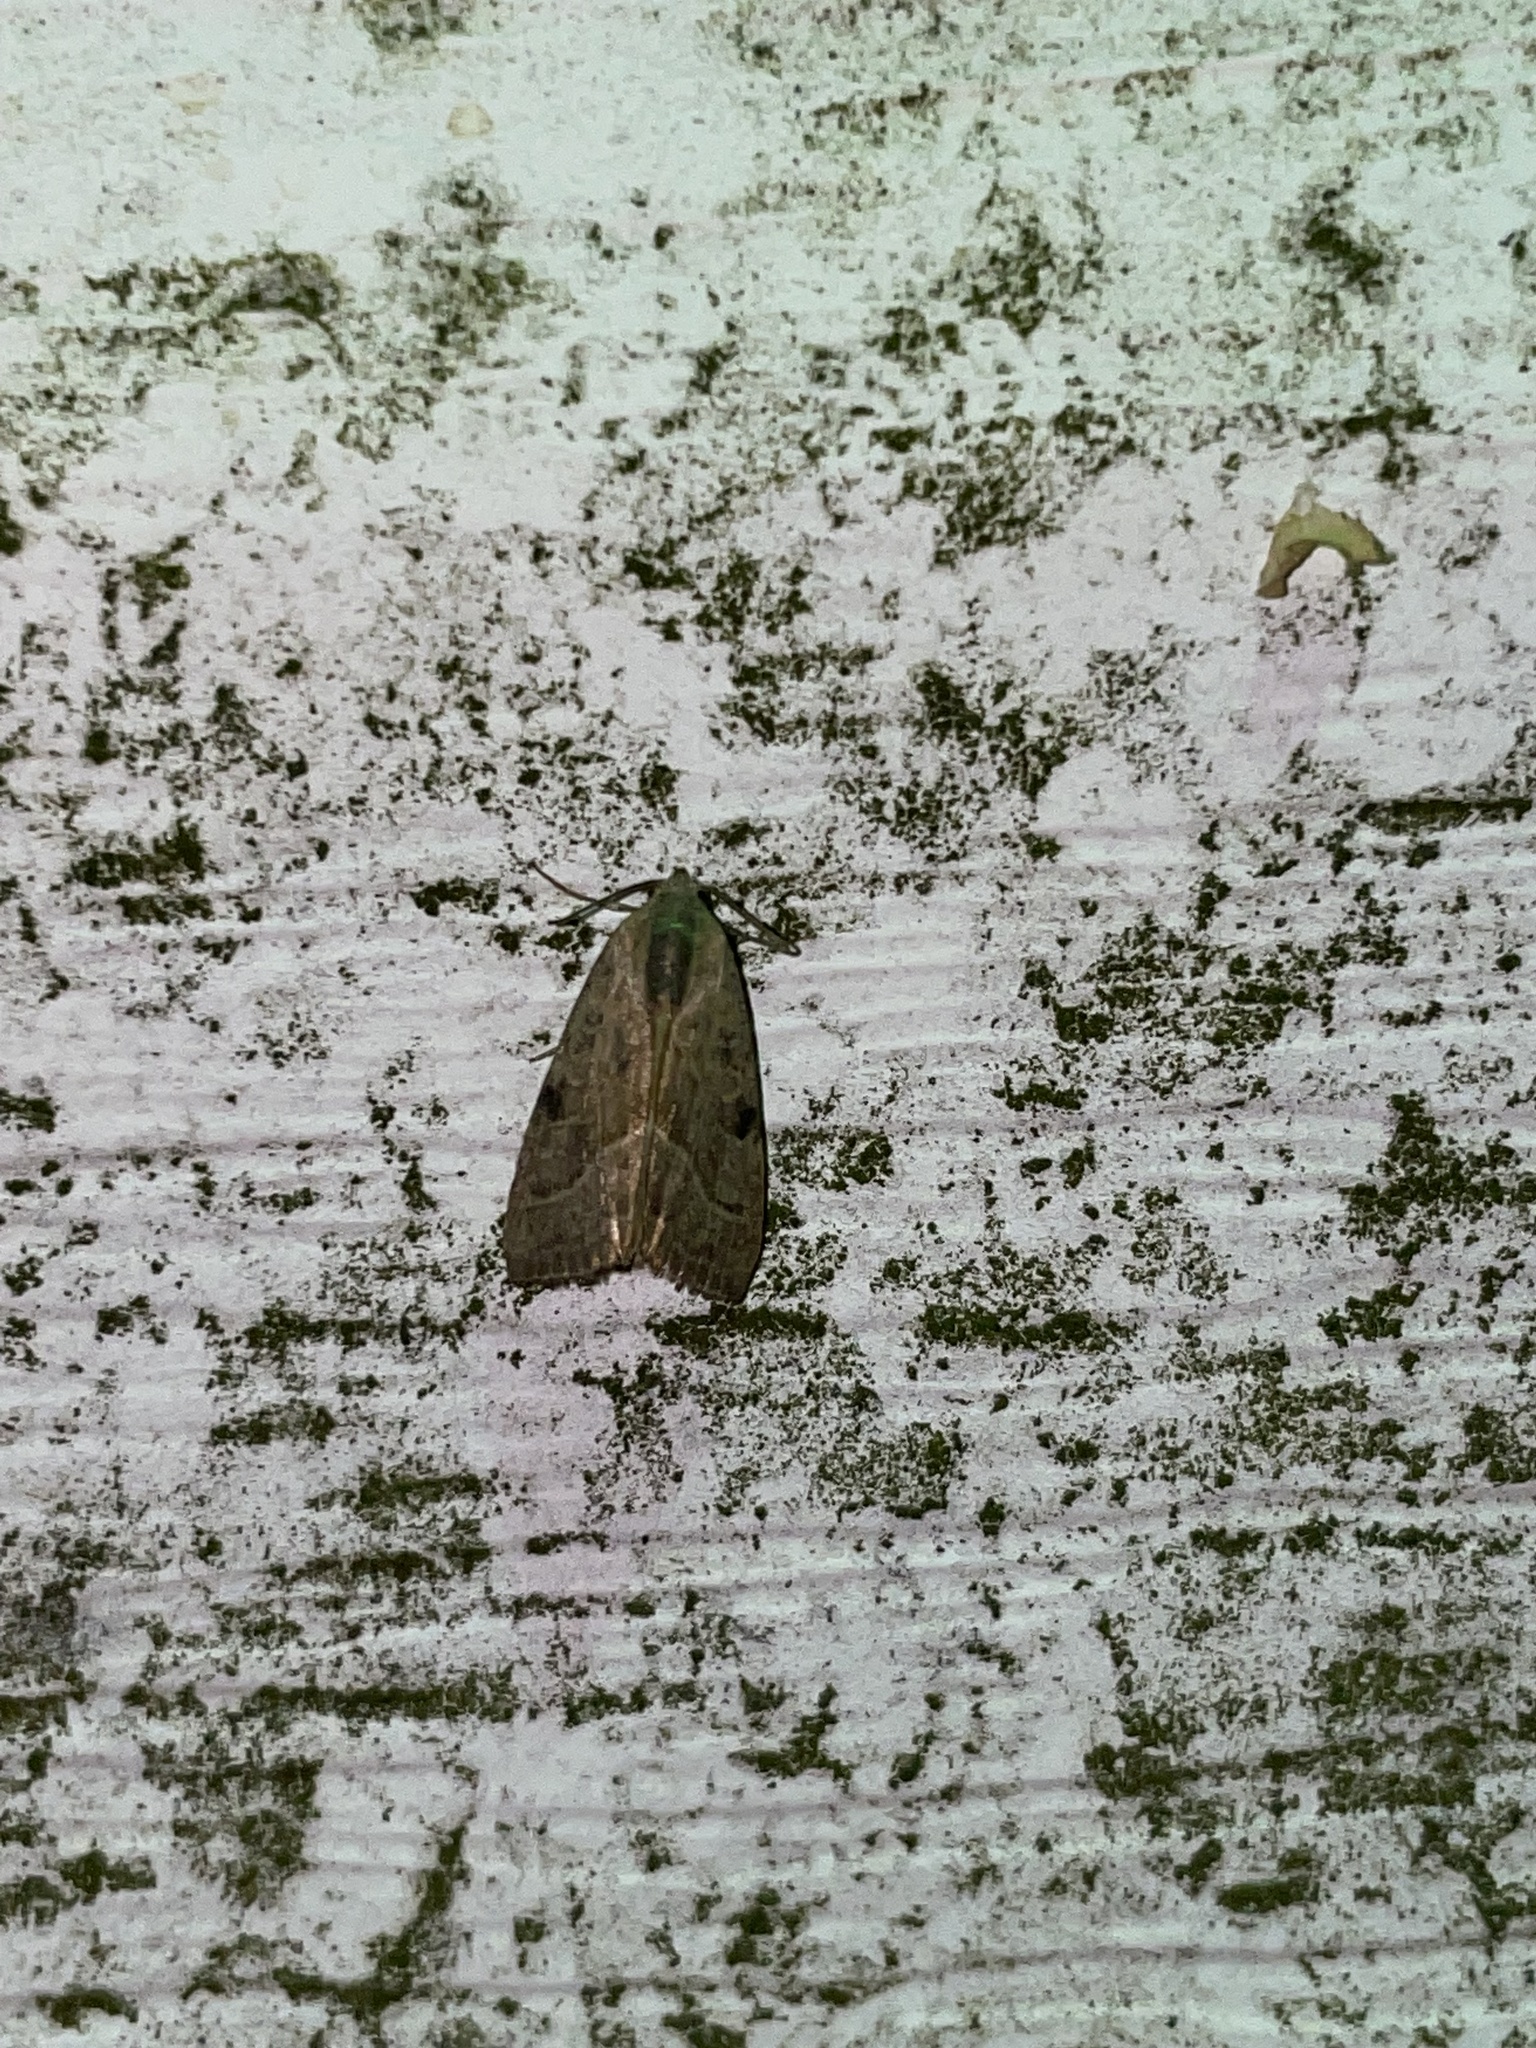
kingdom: Animalia
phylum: Arthropoda
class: Insecta
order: Lepidoptera
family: Noctuidae
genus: Galgula
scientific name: Galgula partita
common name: Wedgeling
